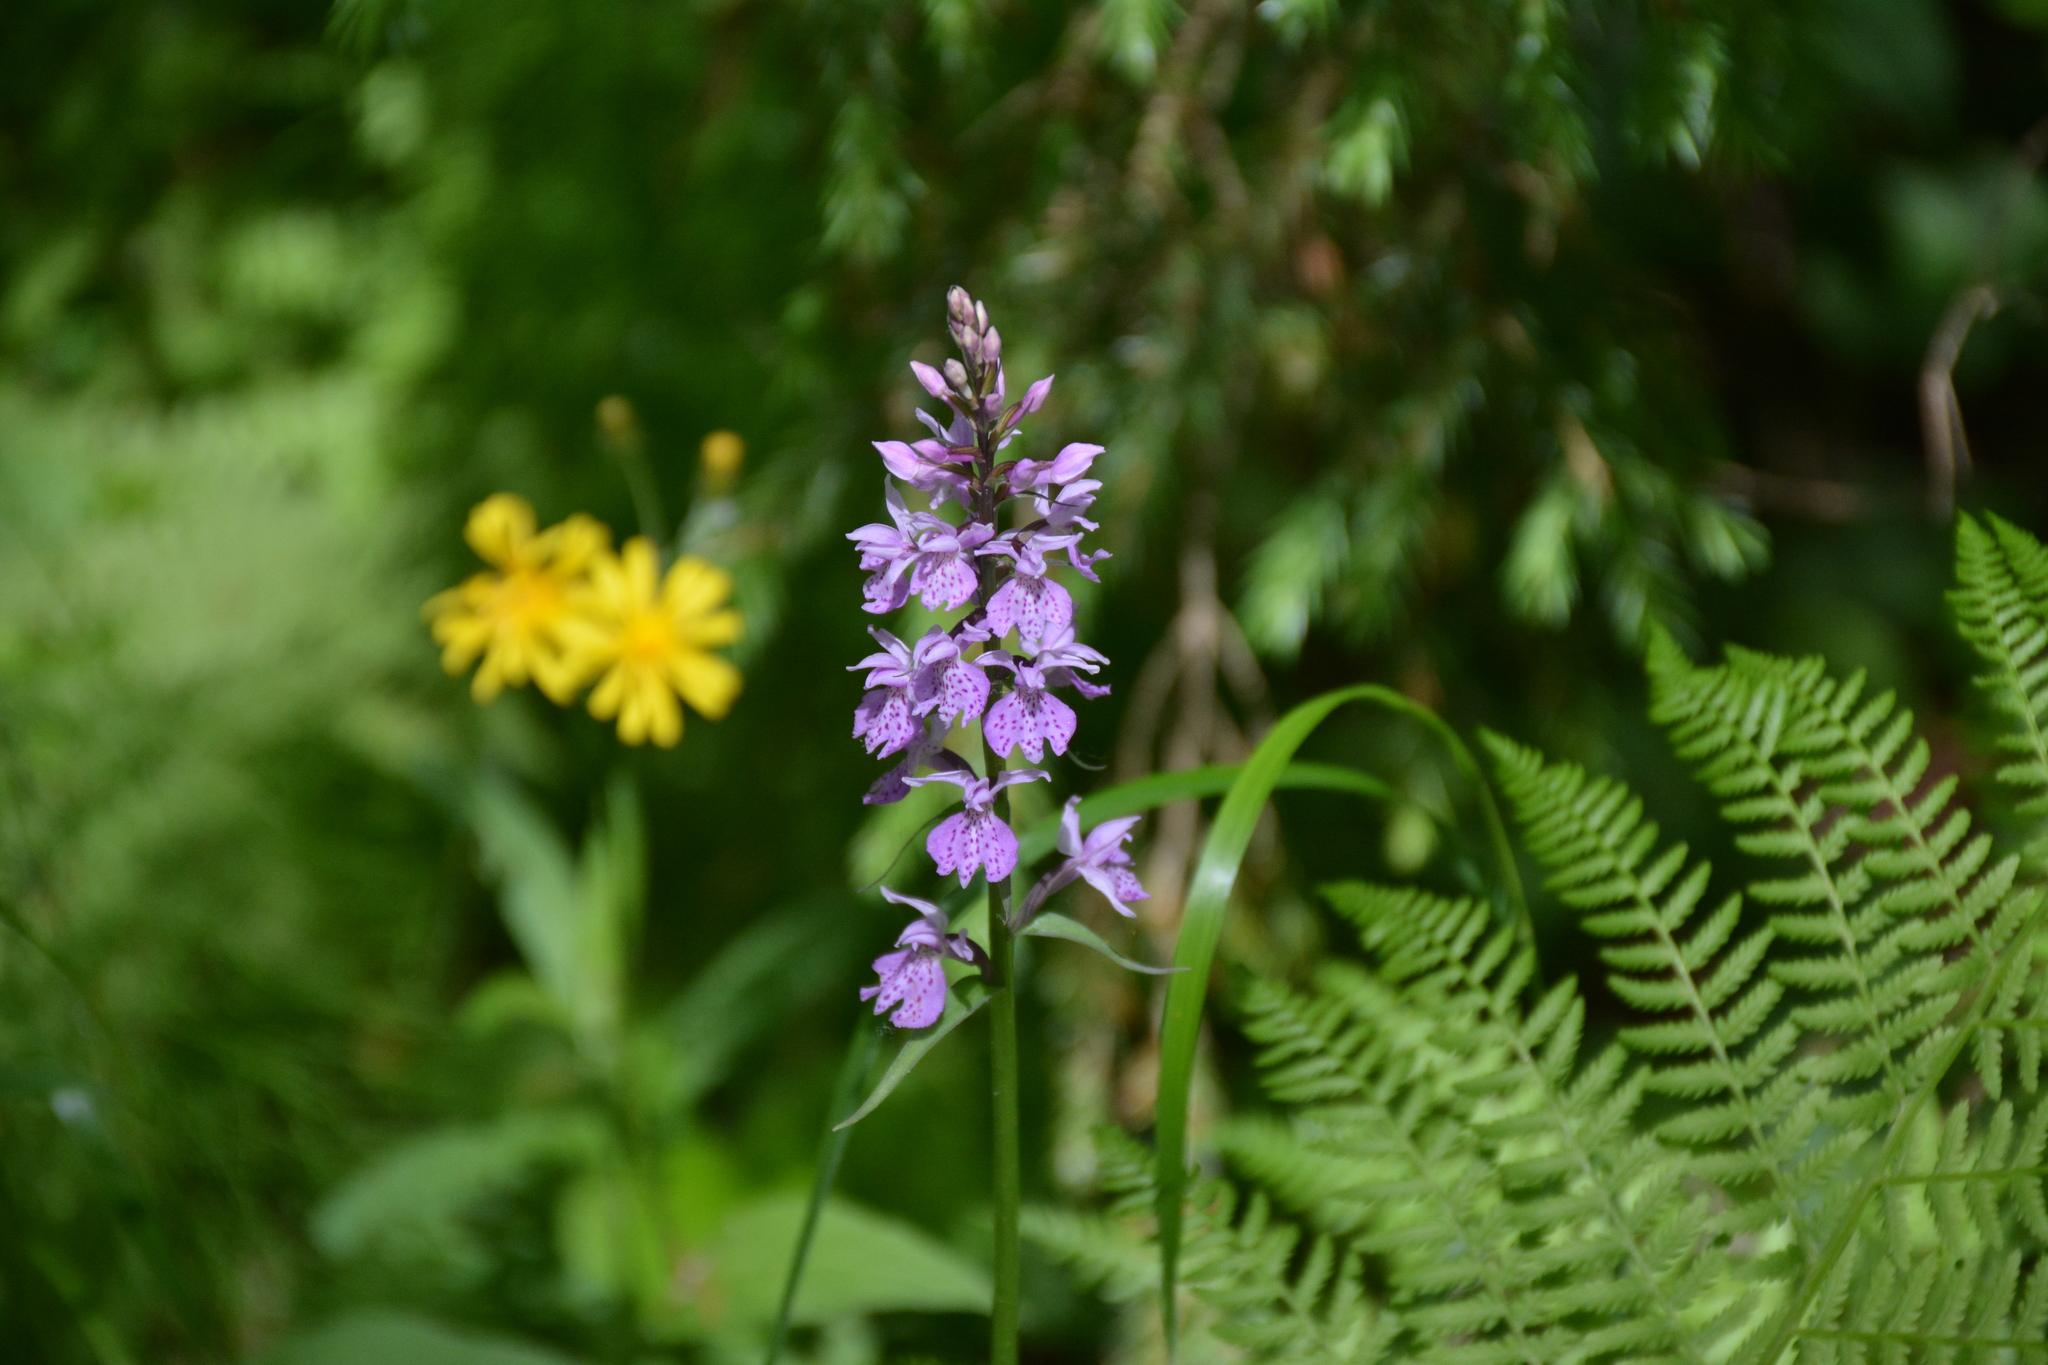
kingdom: Plantae
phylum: Tracheophyta
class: Liliopsida
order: Asparagales
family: Orchidaceae
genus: Dactylorhiza
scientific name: Dactylorhiza maculata
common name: Heath spotted-orchid
